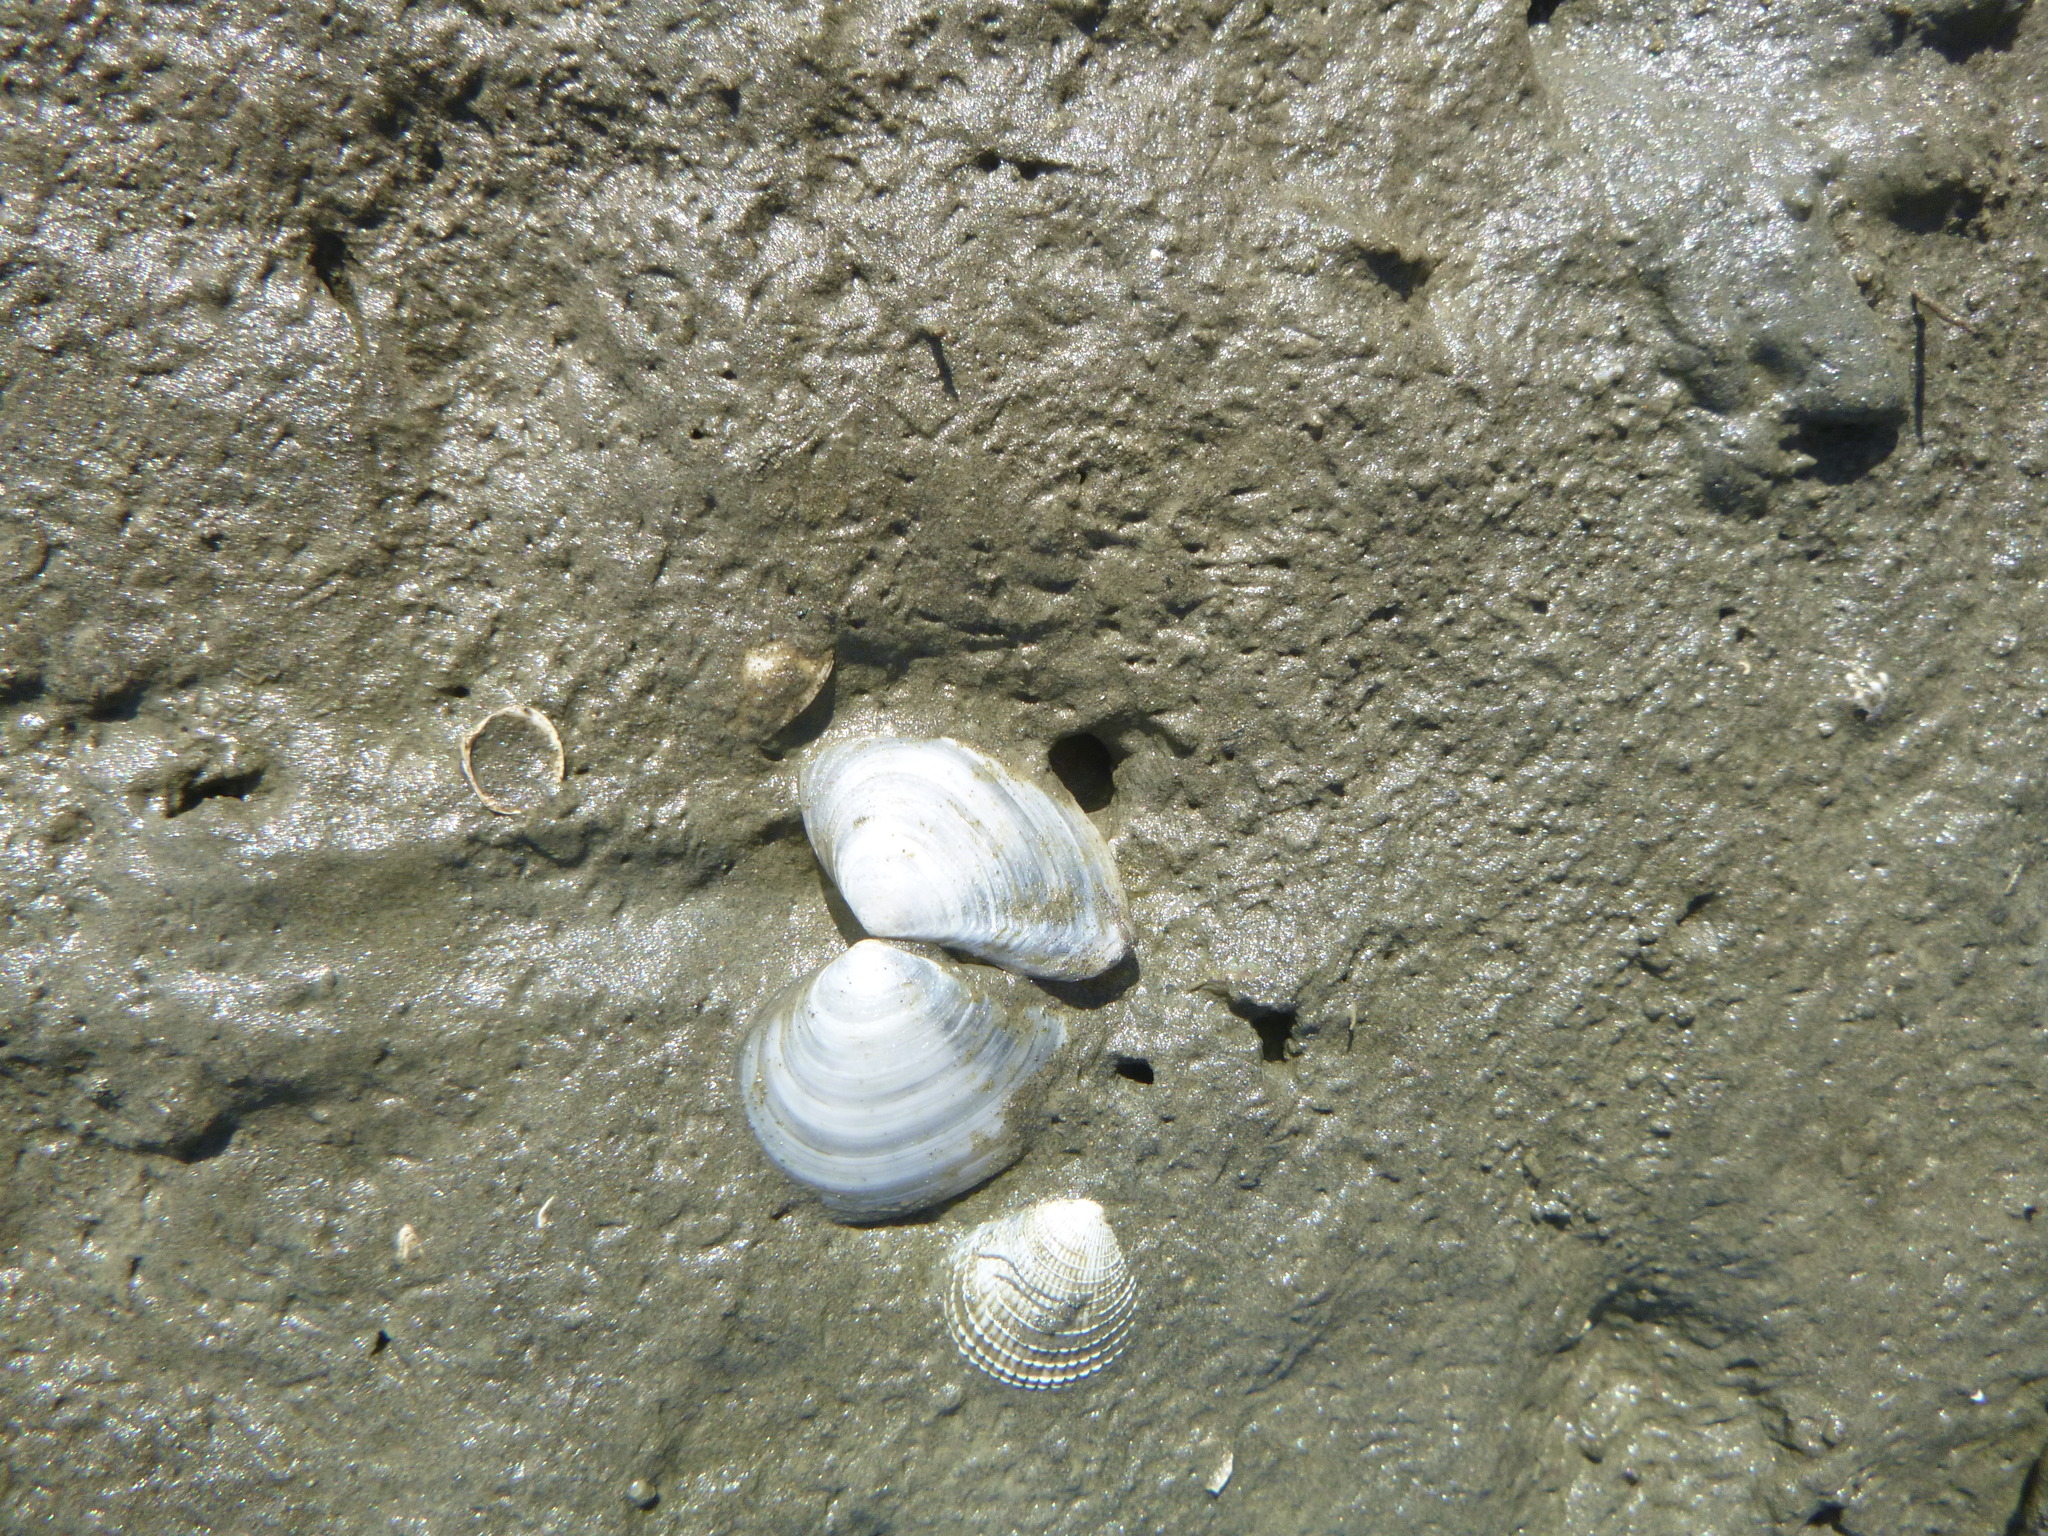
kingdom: Animalia
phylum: Mollusca
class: Bivalvia
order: Cardiida
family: Tellinidae
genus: Macomona
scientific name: Macomona liliana
